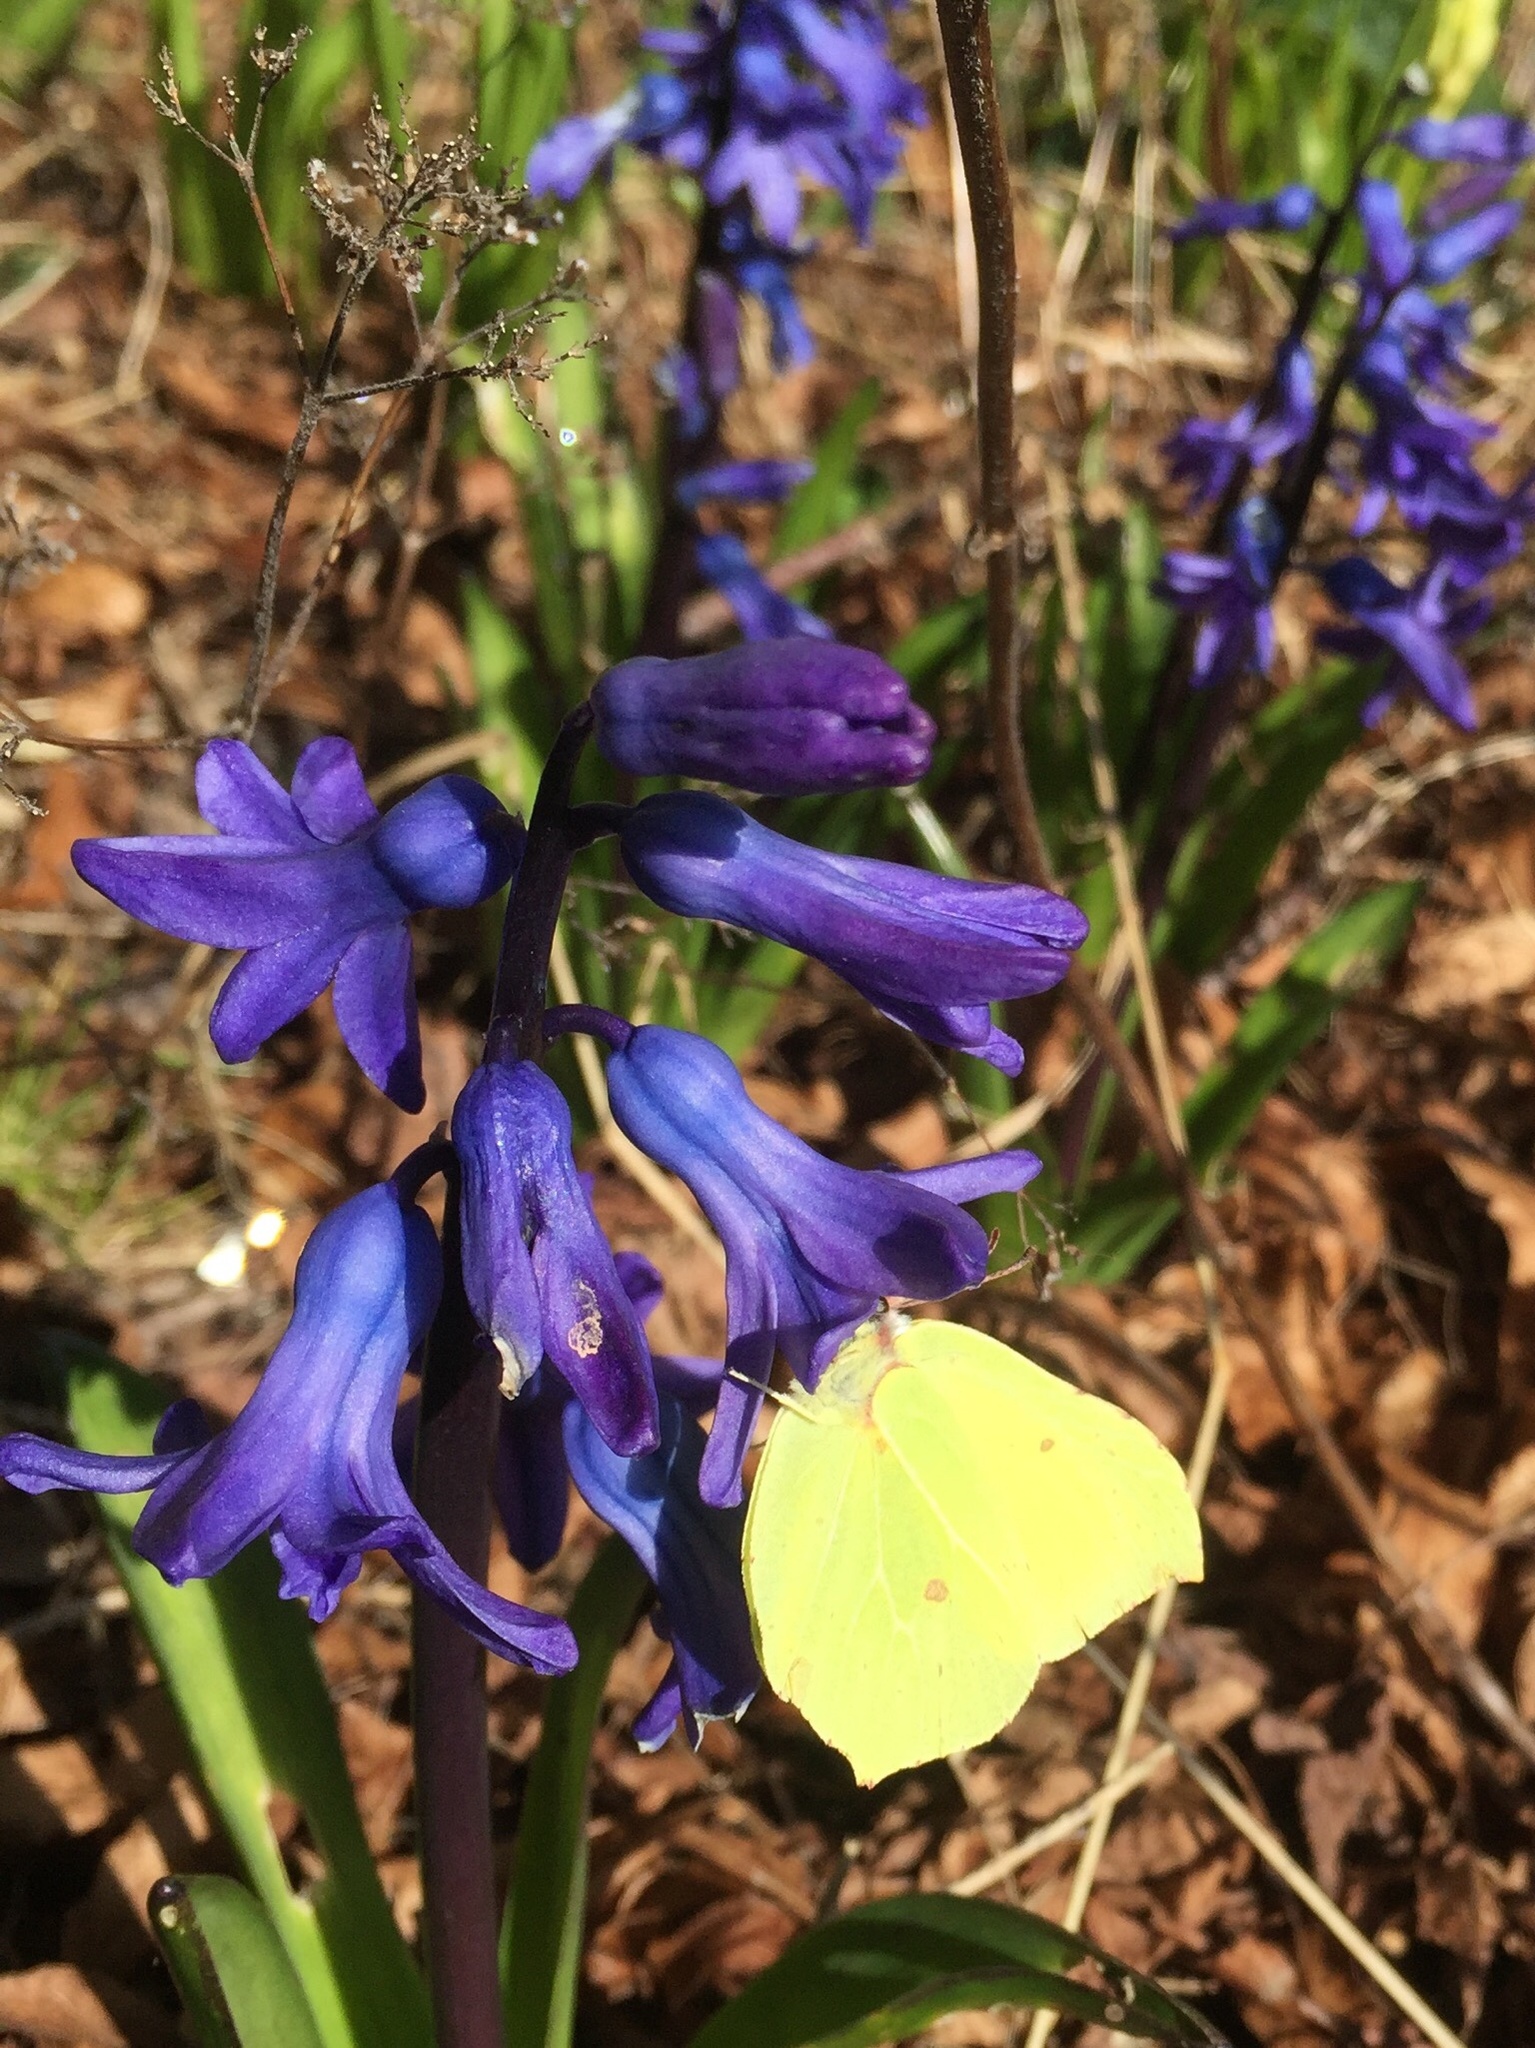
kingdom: Animalia
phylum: Arthropoda
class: Insecta
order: Lepidoptera
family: Pieridae
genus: Gonepteryx
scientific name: Gonepteryx rhamni
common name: Brimstone
